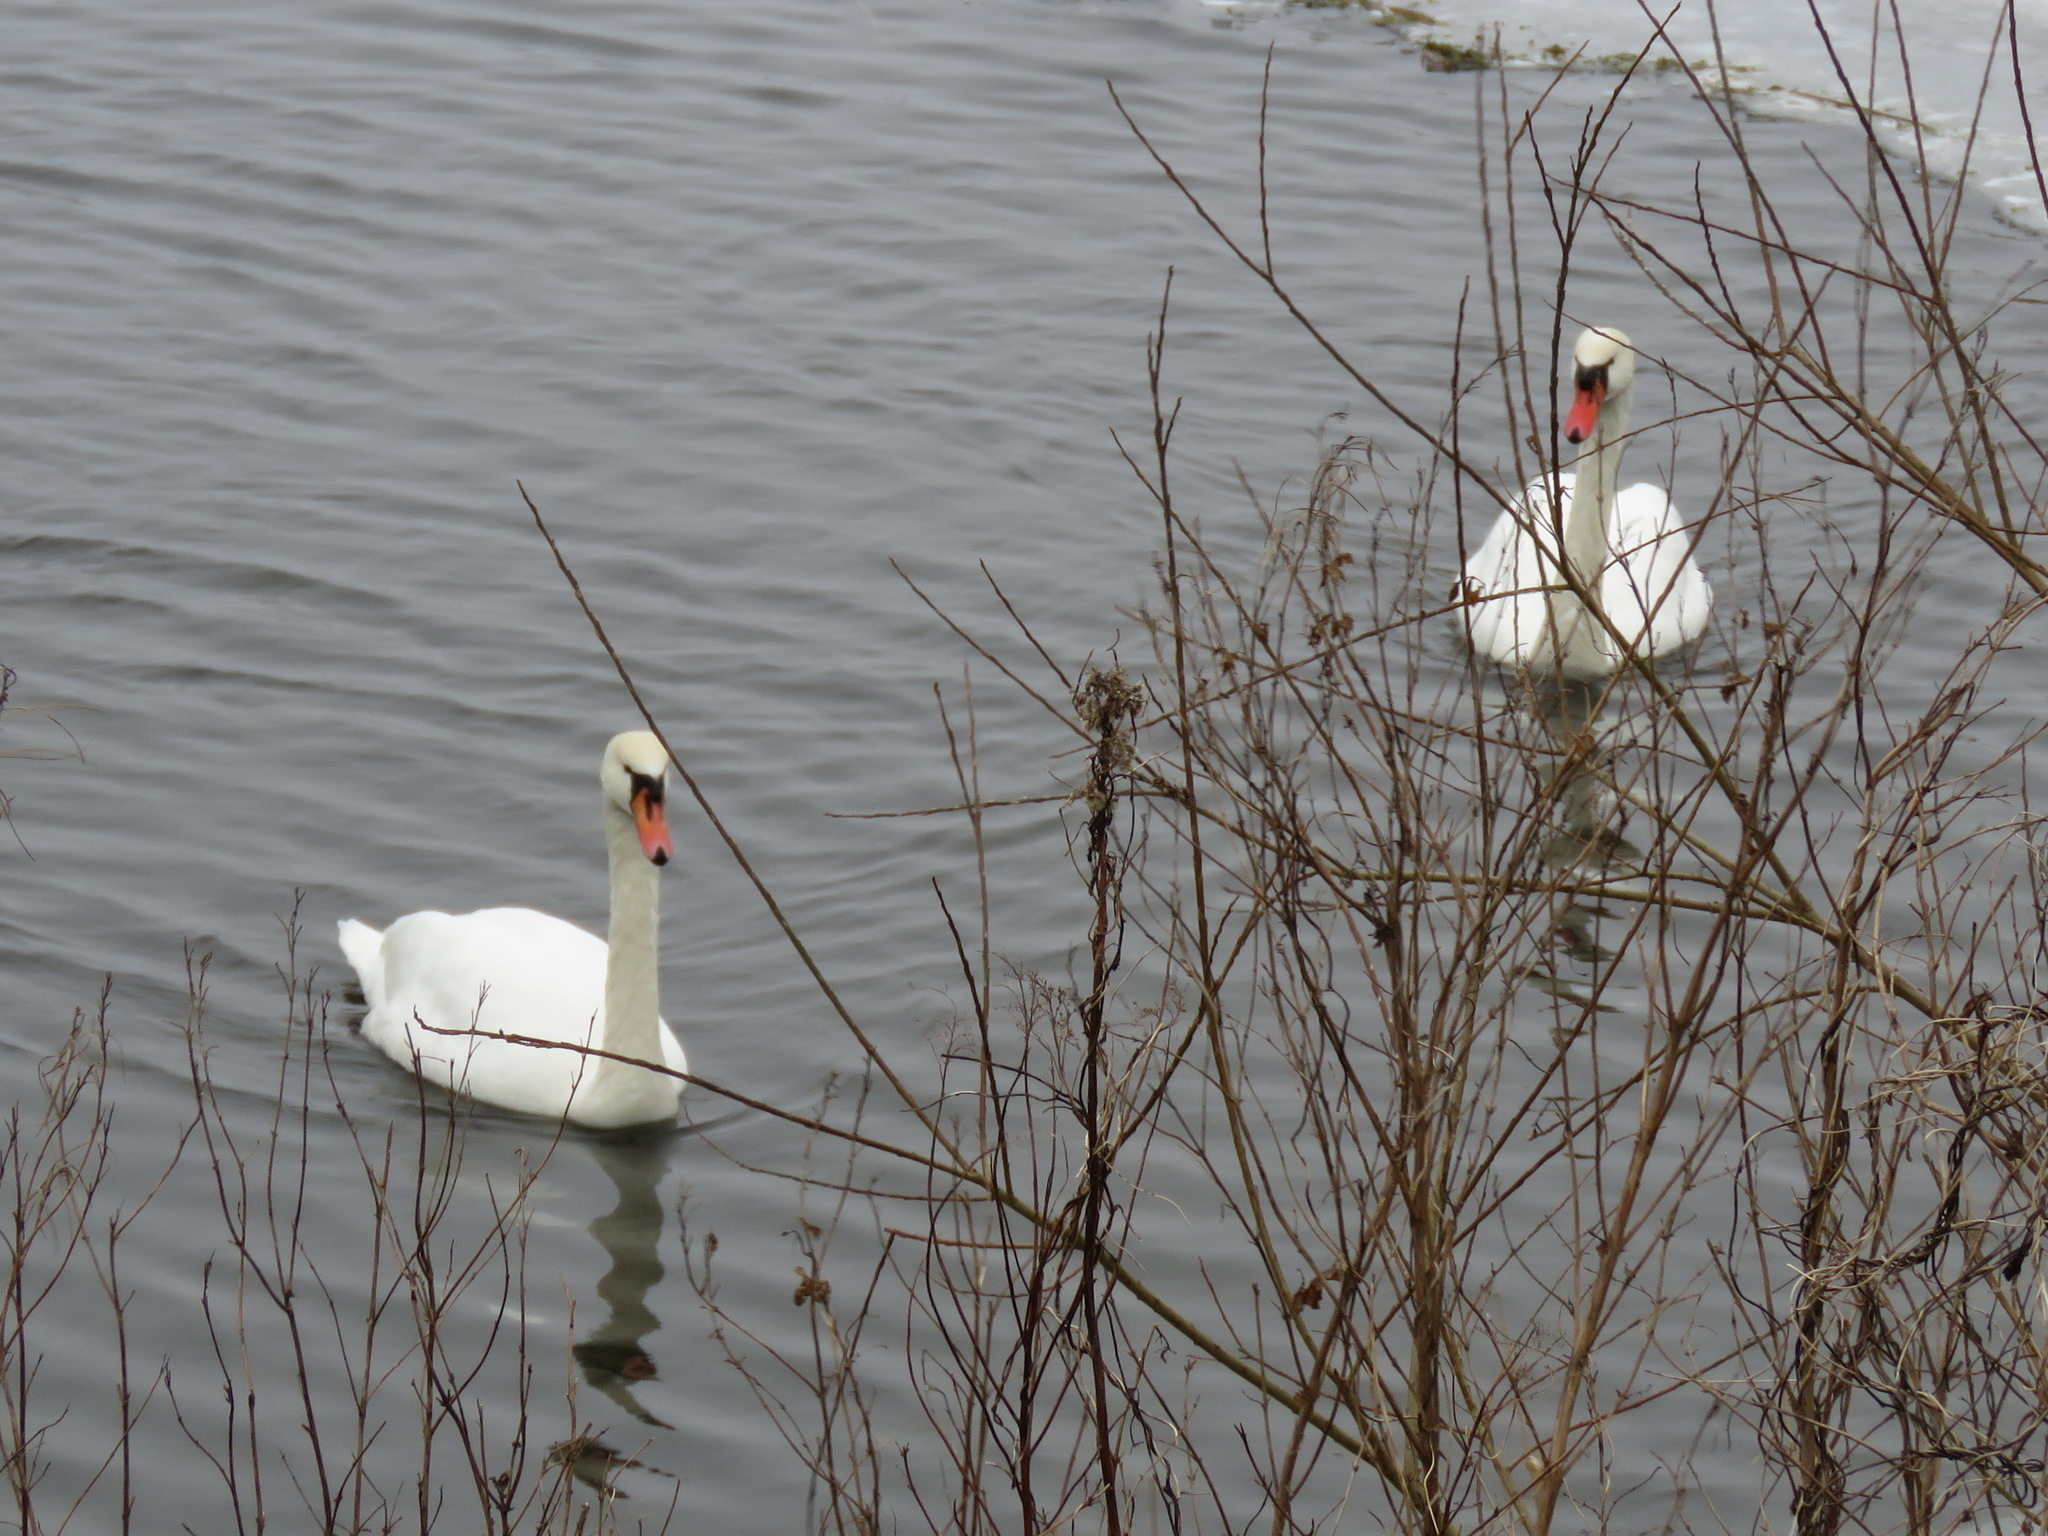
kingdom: Animalia
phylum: Chordata
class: Aves
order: Anseriformes
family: Anatidae
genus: Cygnus
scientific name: Cygnus olor
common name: Mute swan
